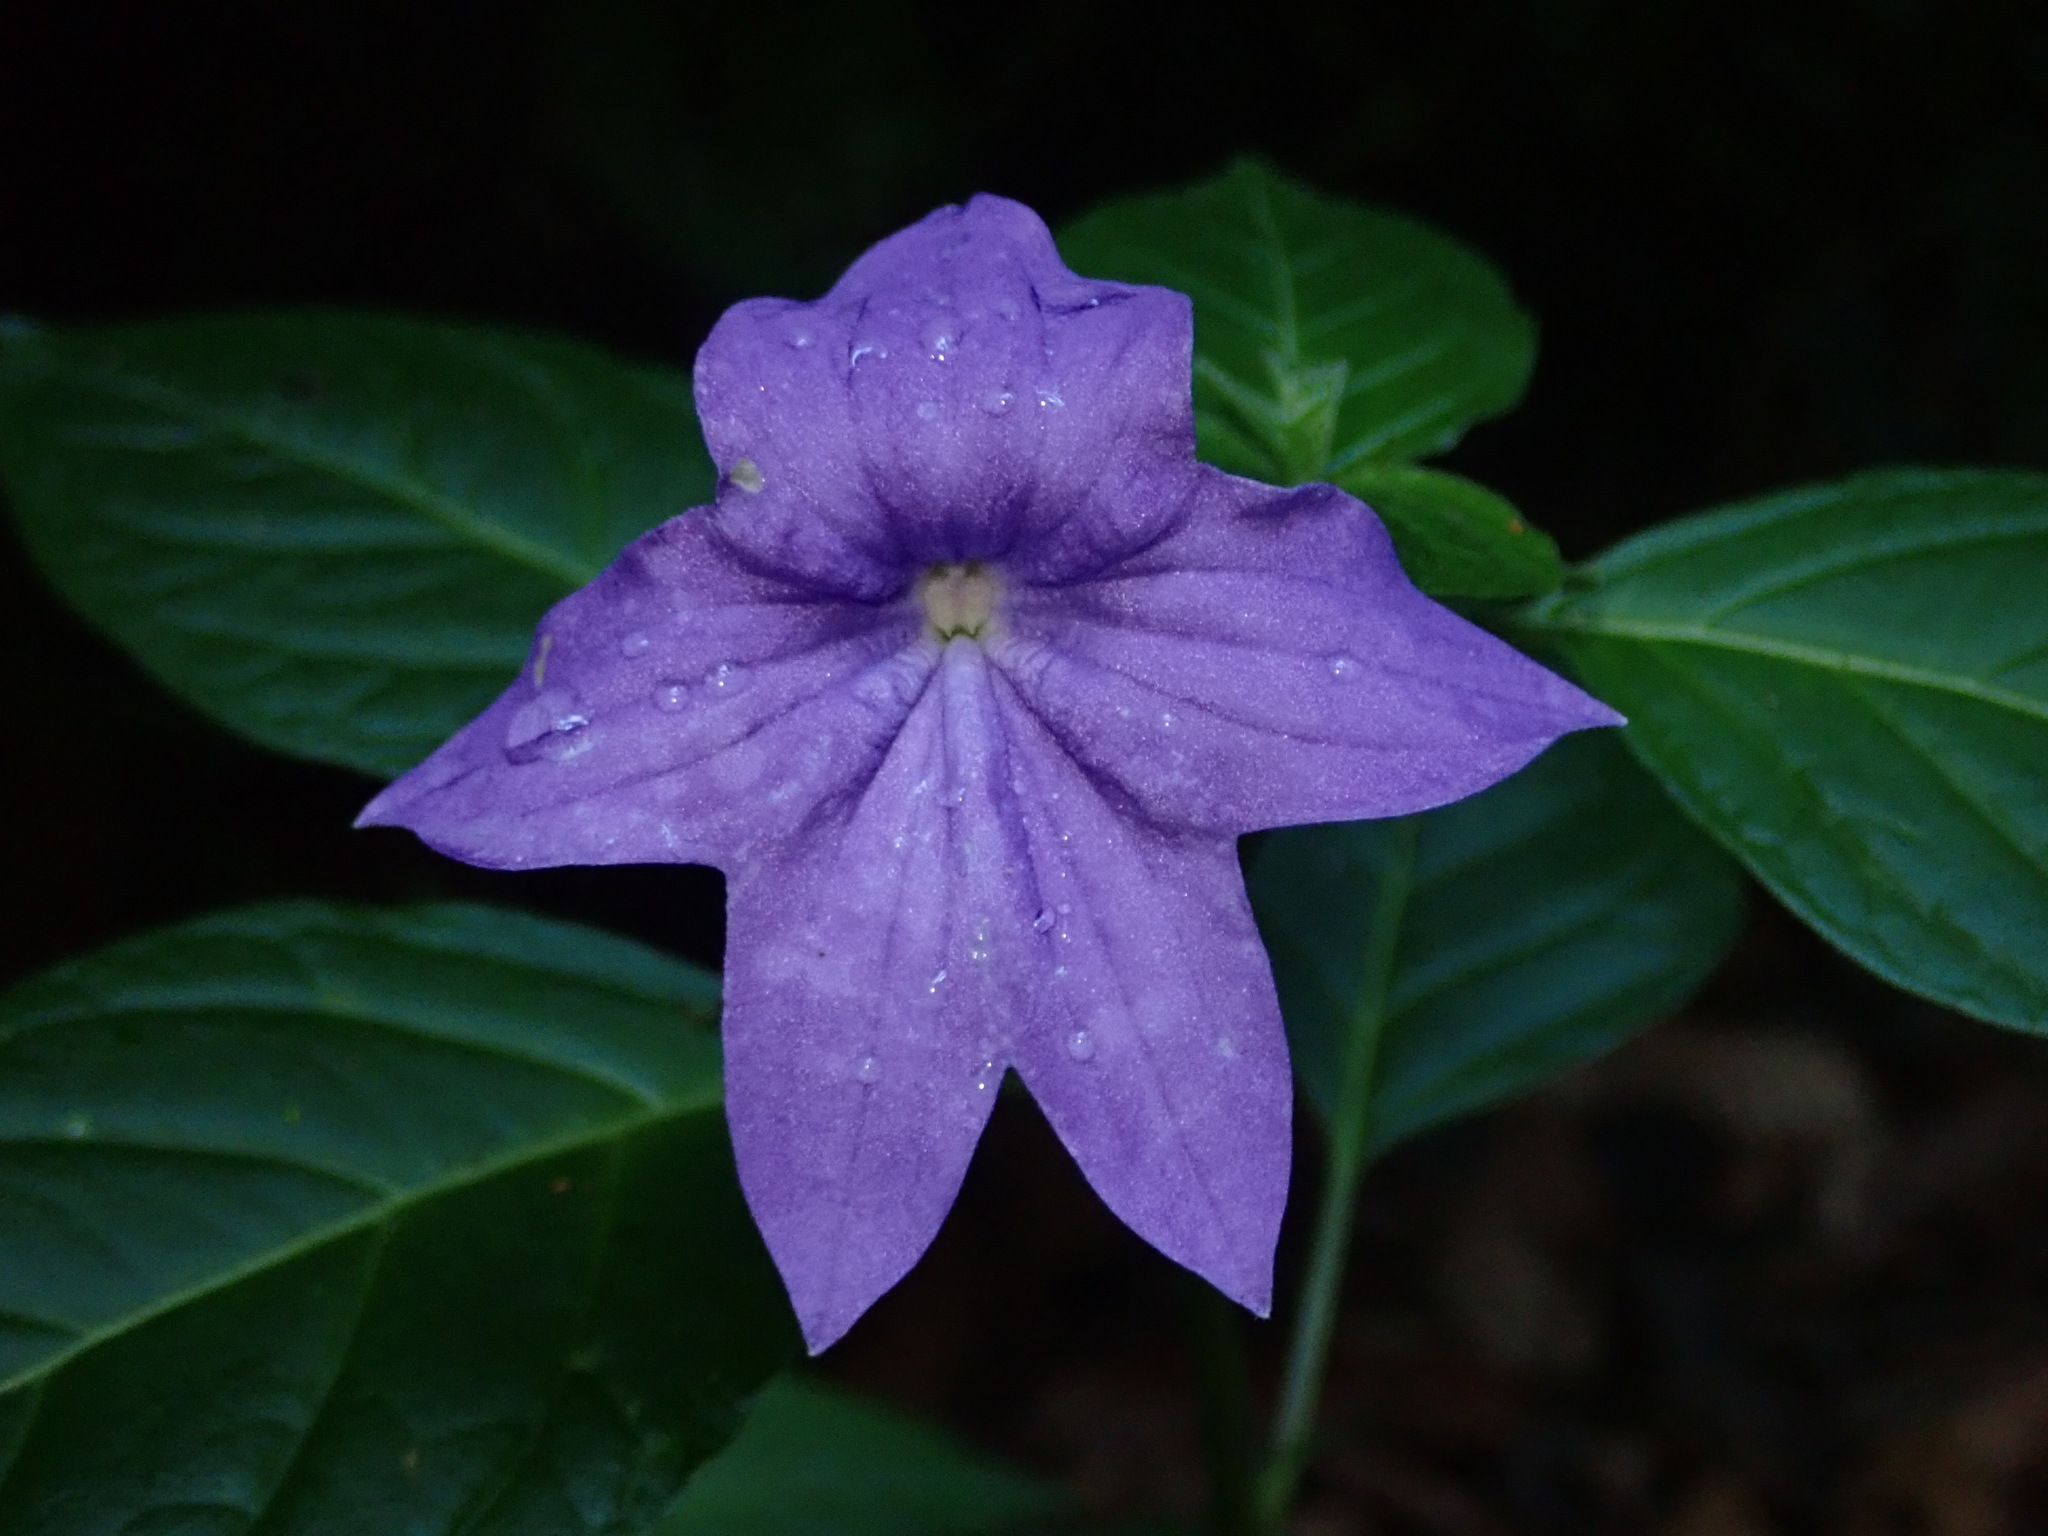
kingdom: Plantae
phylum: Tracheophyta
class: Magnoliopsida
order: Solanales
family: Solanaceae
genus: Browallia
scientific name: Browallia speciosa
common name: Bush-violet
